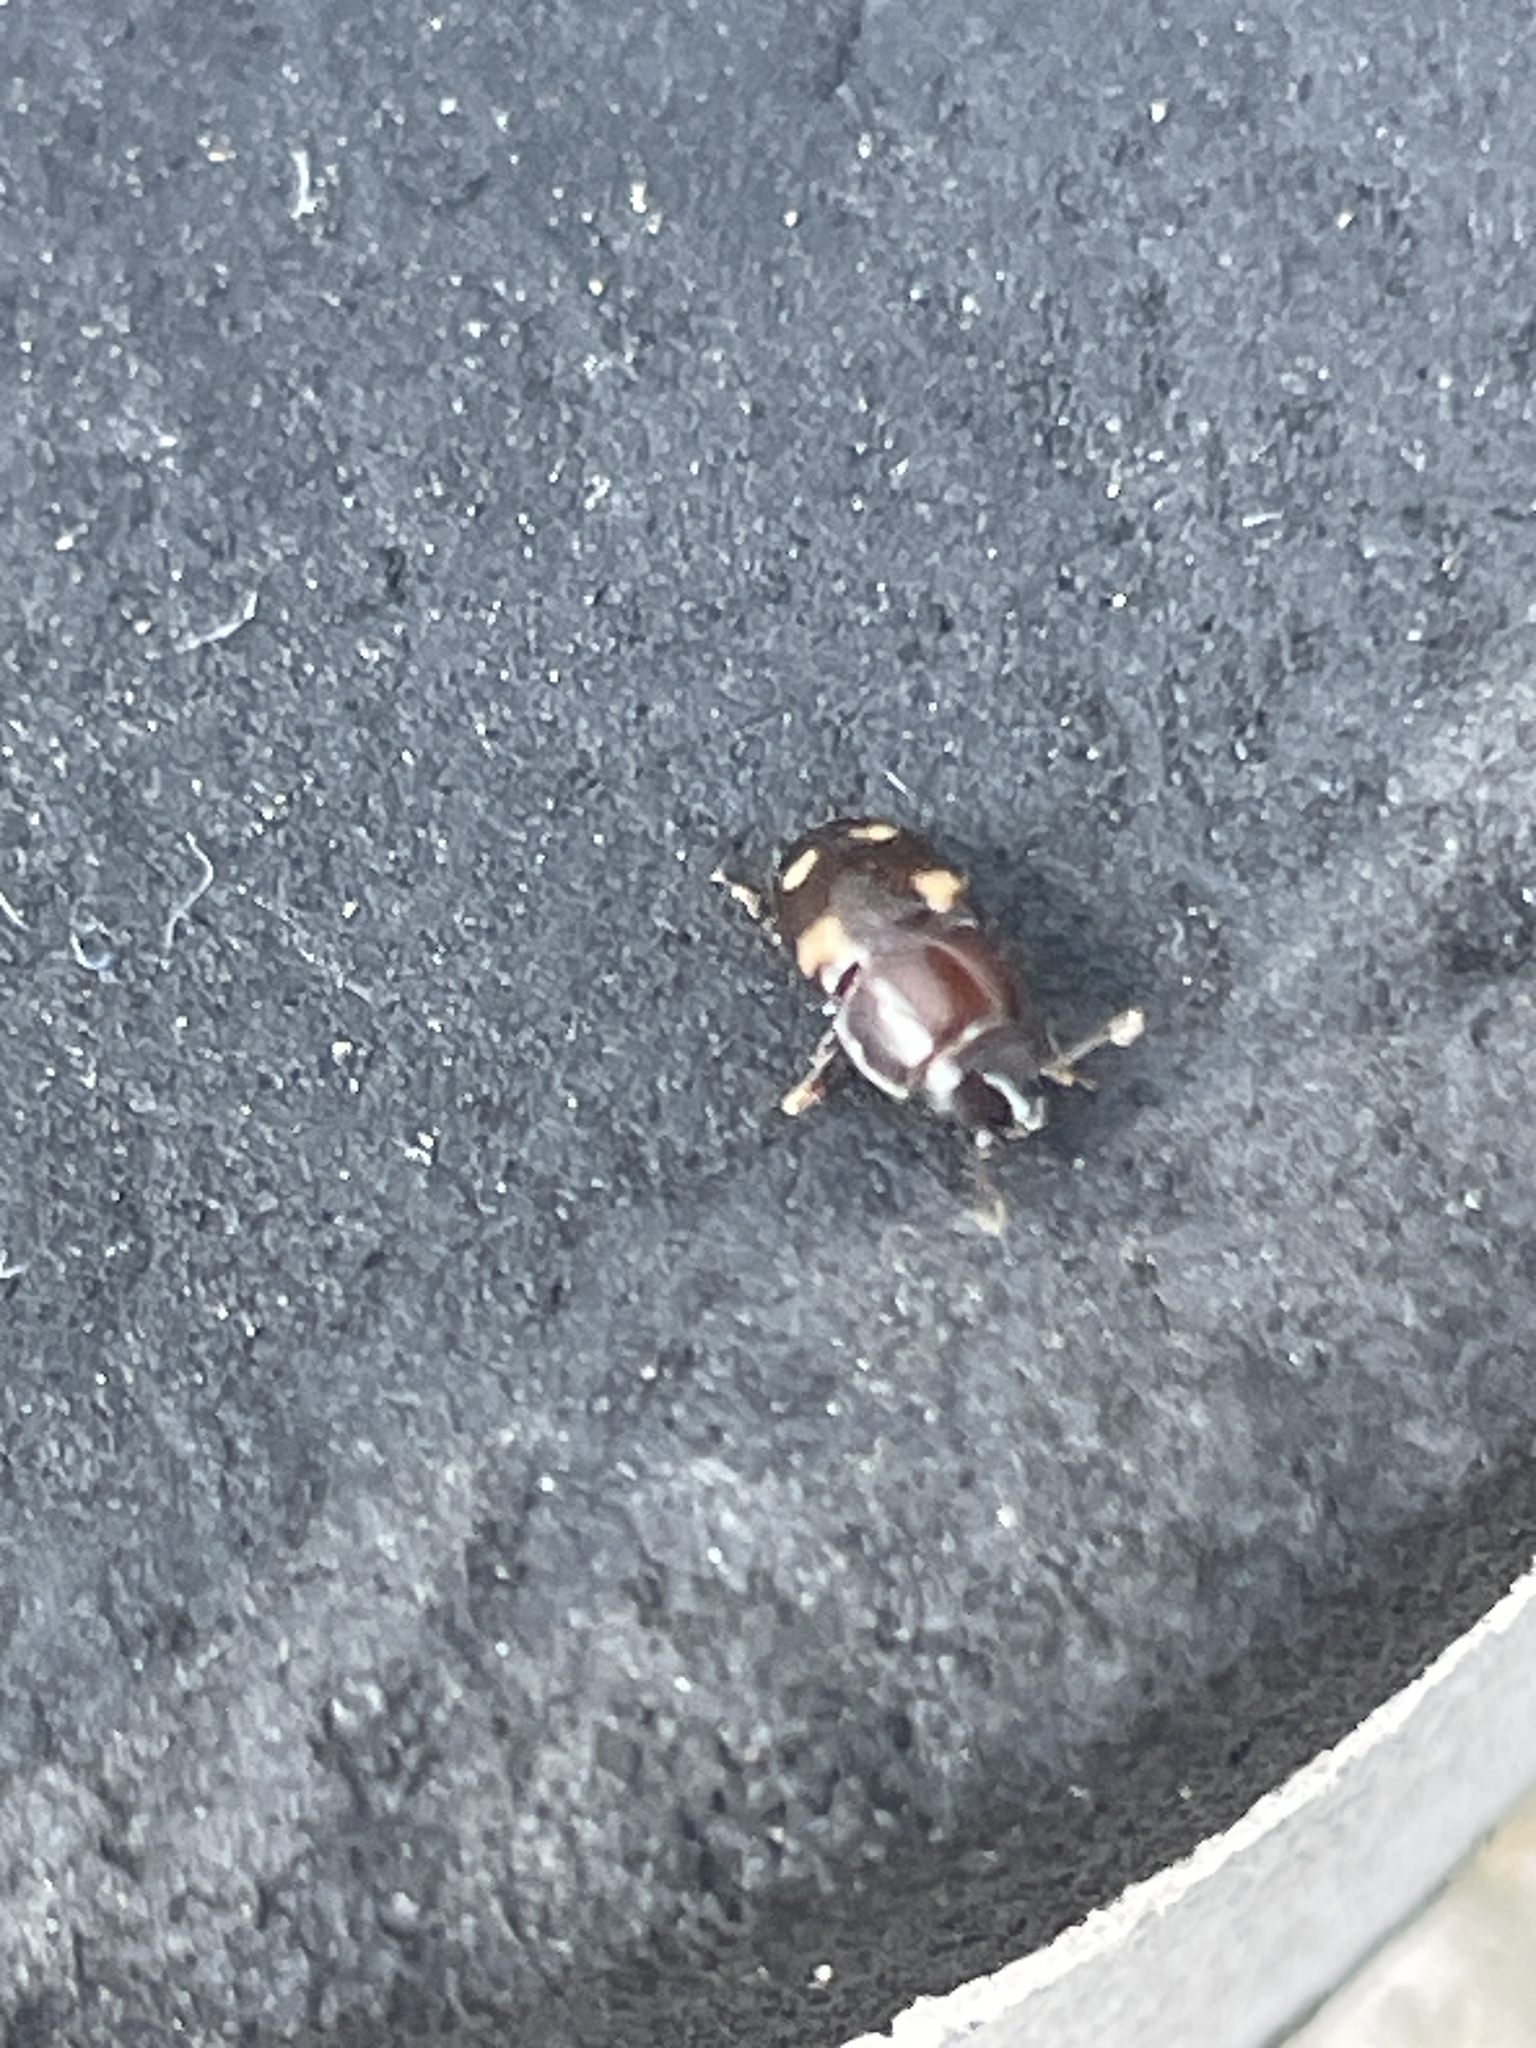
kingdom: Animalia
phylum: Arthropoda
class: Insecta
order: Coleoptera
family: Nitidulidae
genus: Glischrochilus
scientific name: Glischrochilus quadrisignatus
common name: Picnic beetle
